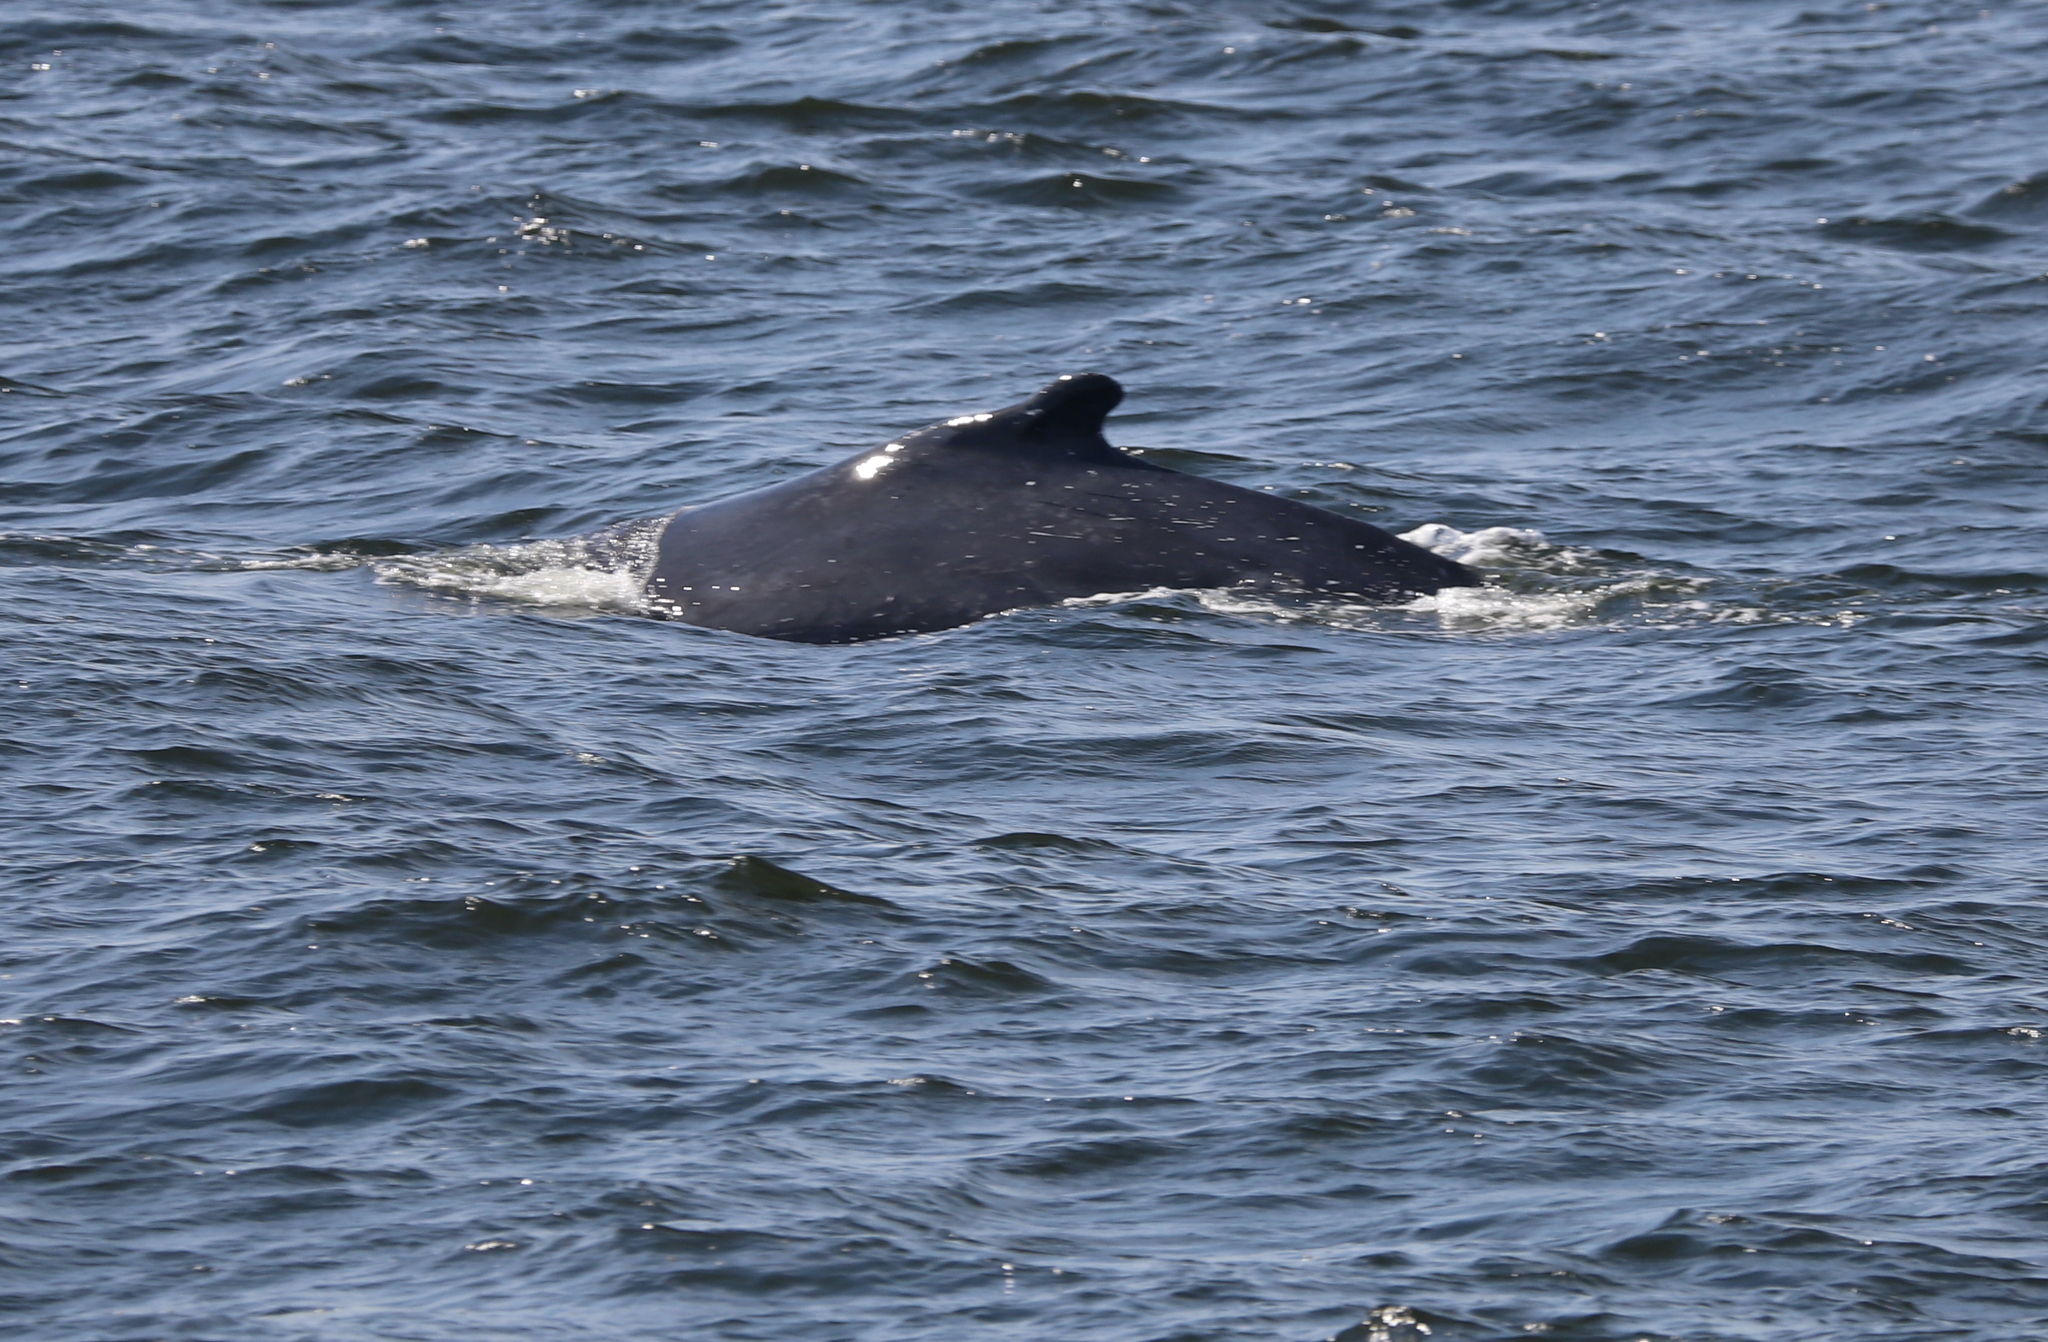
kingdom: Animalia
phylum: Chordata
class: Mammalia
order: Cetacea
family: Balaenopteridae
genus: Megaptera
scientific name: Megaptera novaeangliae
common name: Humpback whale
